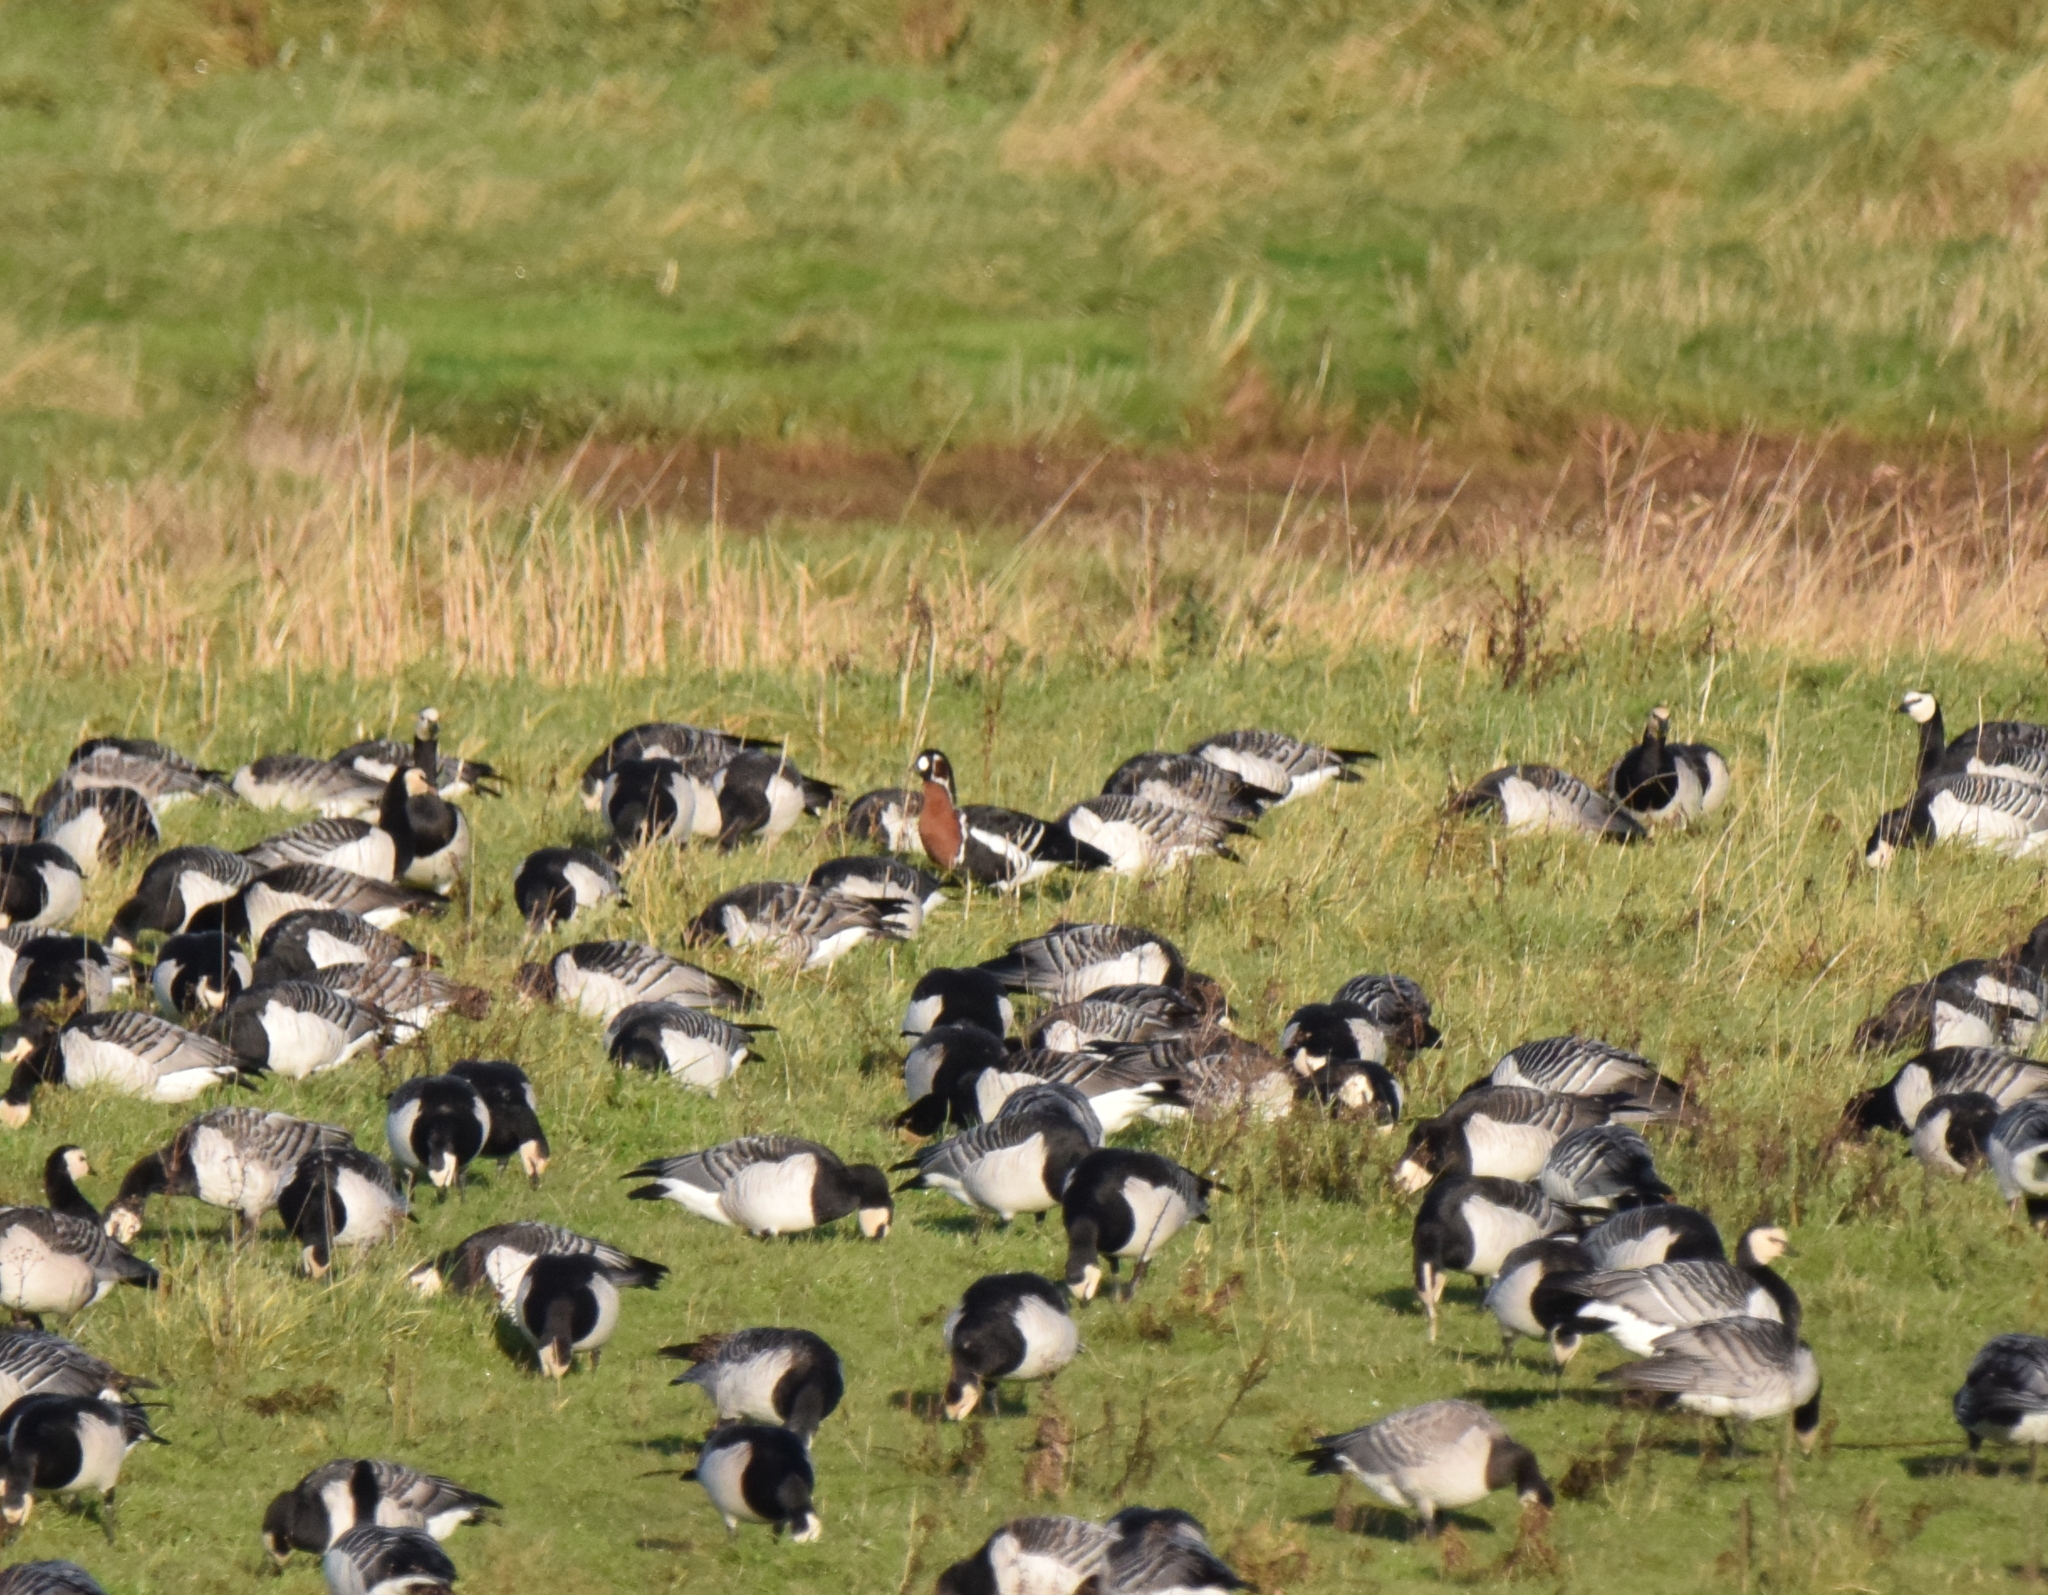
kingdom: Animalia
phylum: Chordata
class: Aves
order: Anseriformes
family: Anatidae
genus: Branta
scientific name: Branta ruficollis
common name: Red-breasted goose
